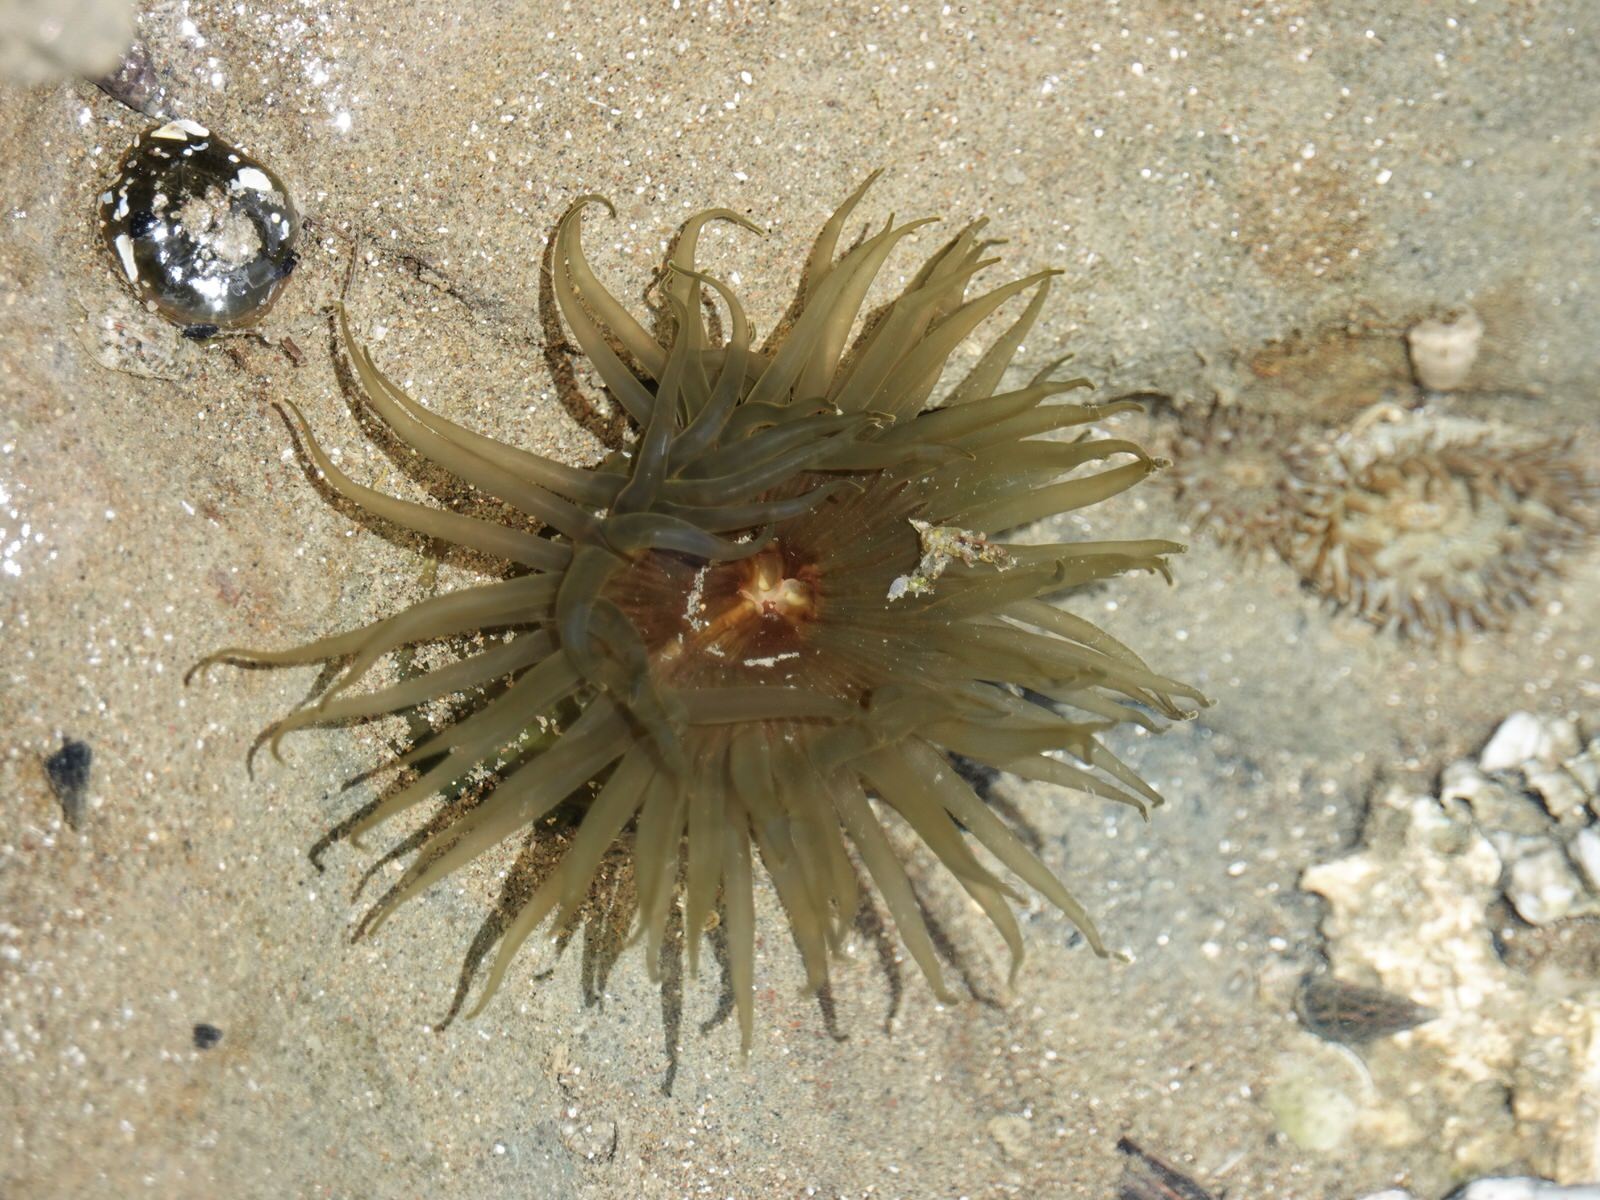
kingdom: Animalia
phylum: Cnidaria
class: Anthozoa
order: Actiniaria
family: Actiniidae
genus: Isactinia
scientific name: Isactinia olivacea
